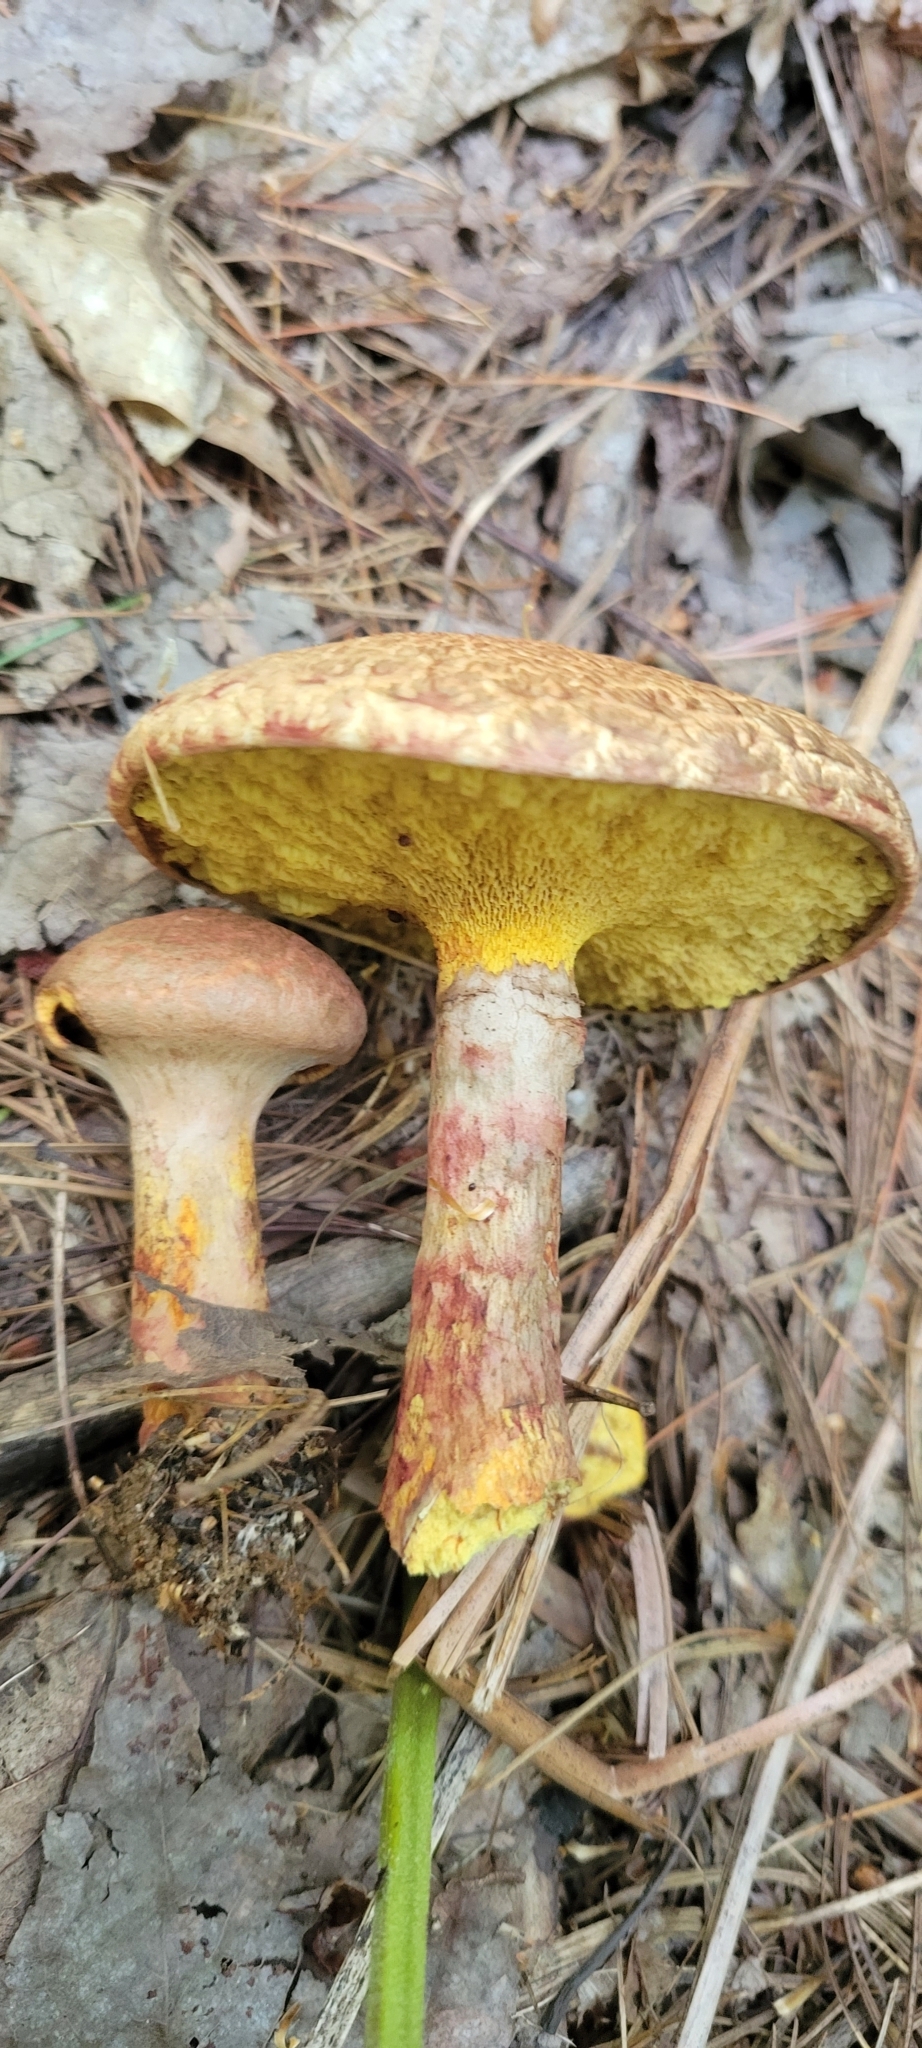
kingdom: Fungi
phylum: Basidiomycota
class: Agaricomycetes
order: Boletales
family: Suillaceae
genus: Suillus
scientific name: Suillus spraguei
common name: Painted suillus
